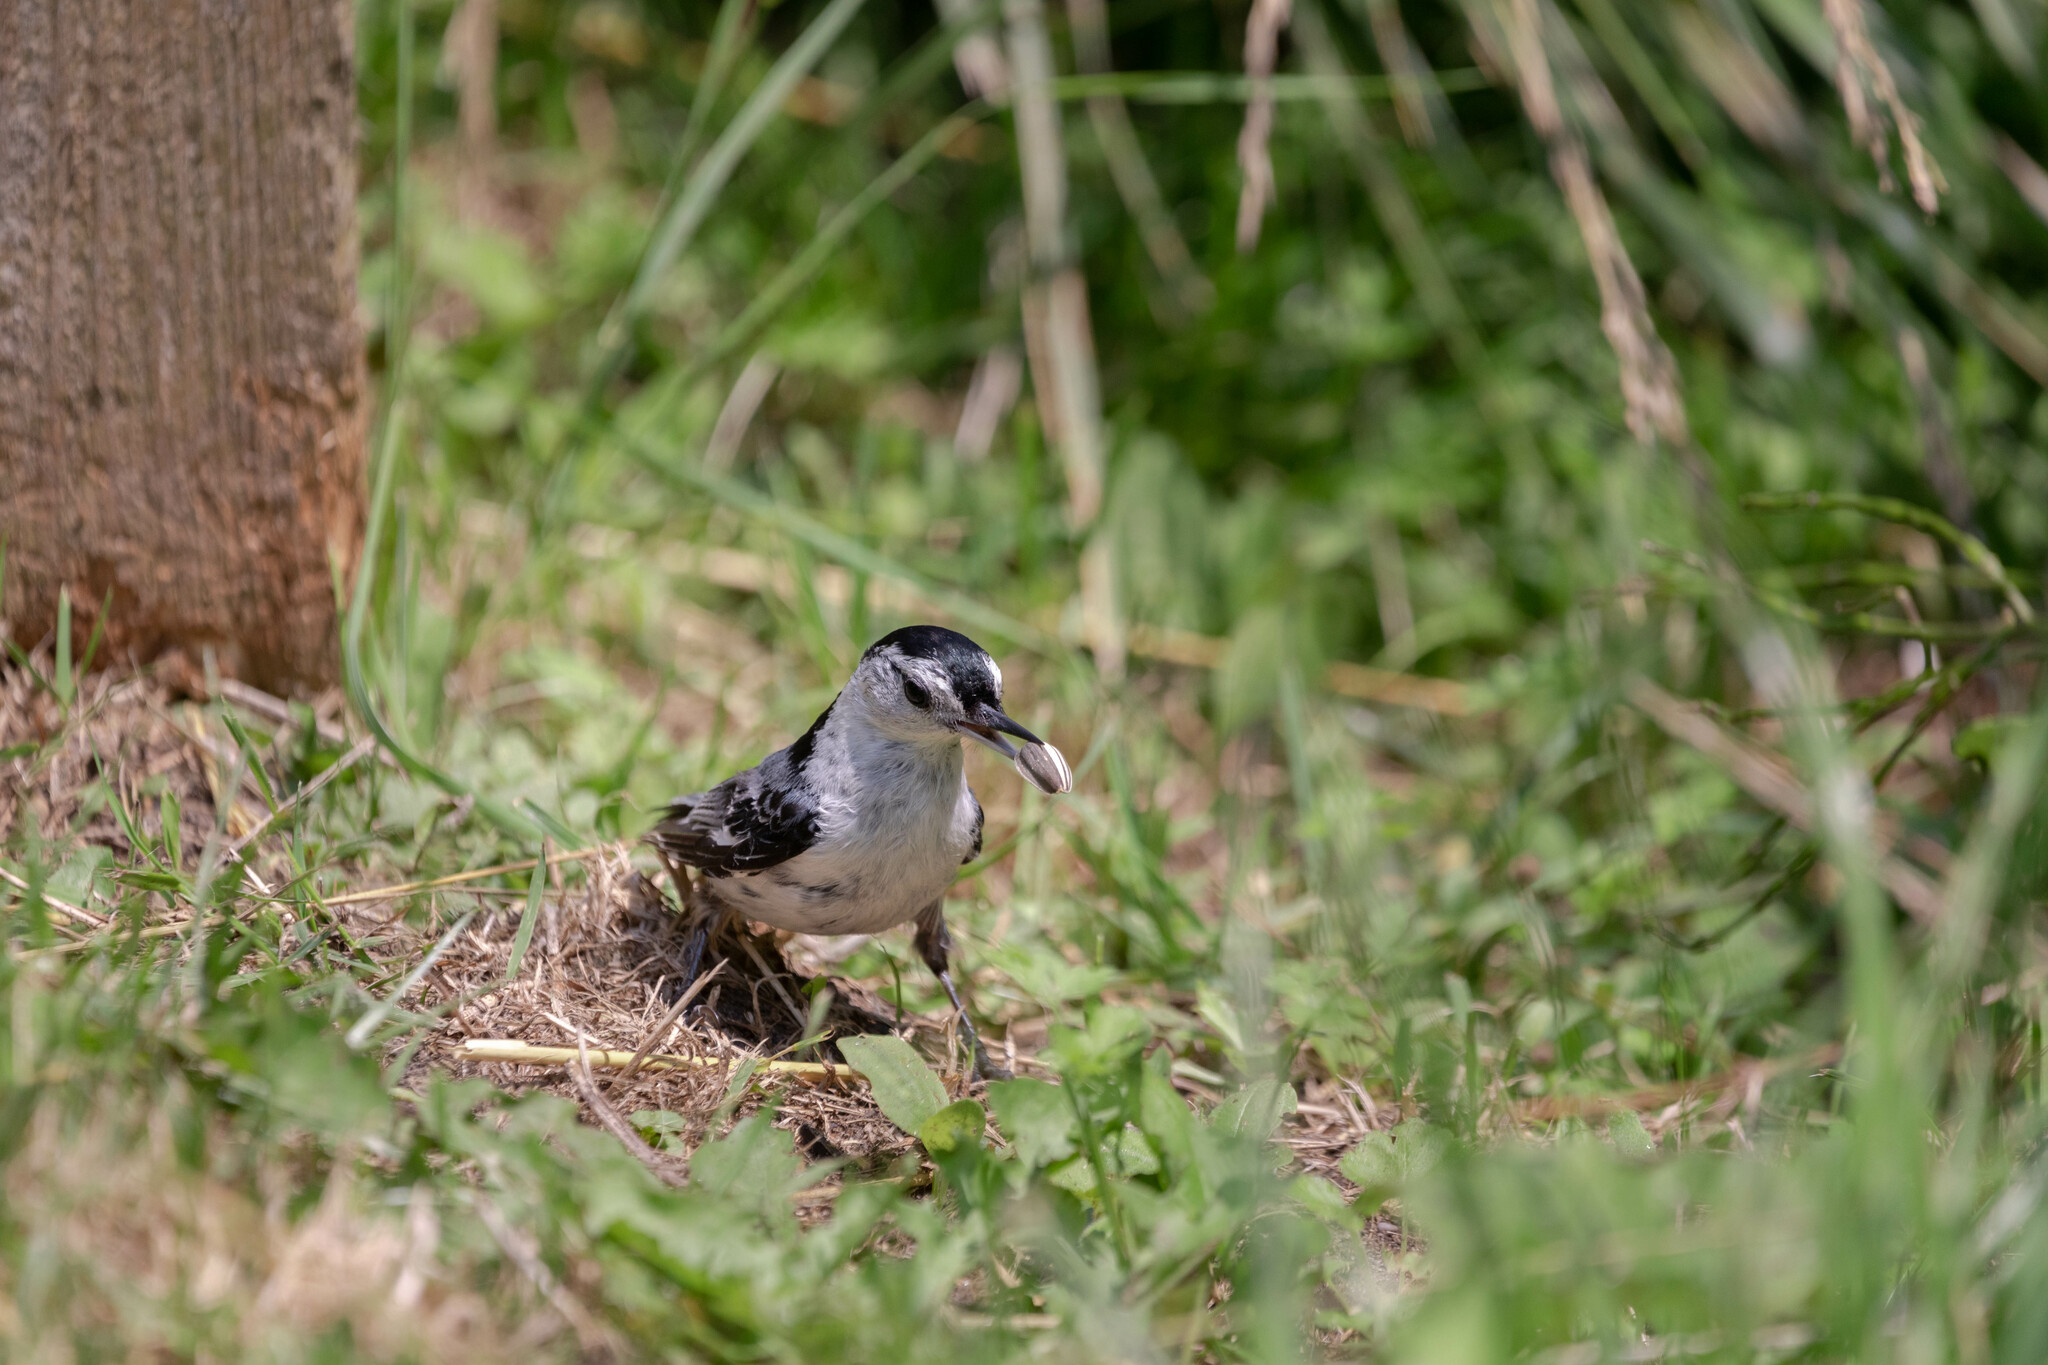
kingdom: Animalia
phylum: Chordata
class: Aves
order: Passeriformes
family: Sittidae
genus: Sitta
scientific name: Sitta carolinensis
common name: White-breasted nuthatch
